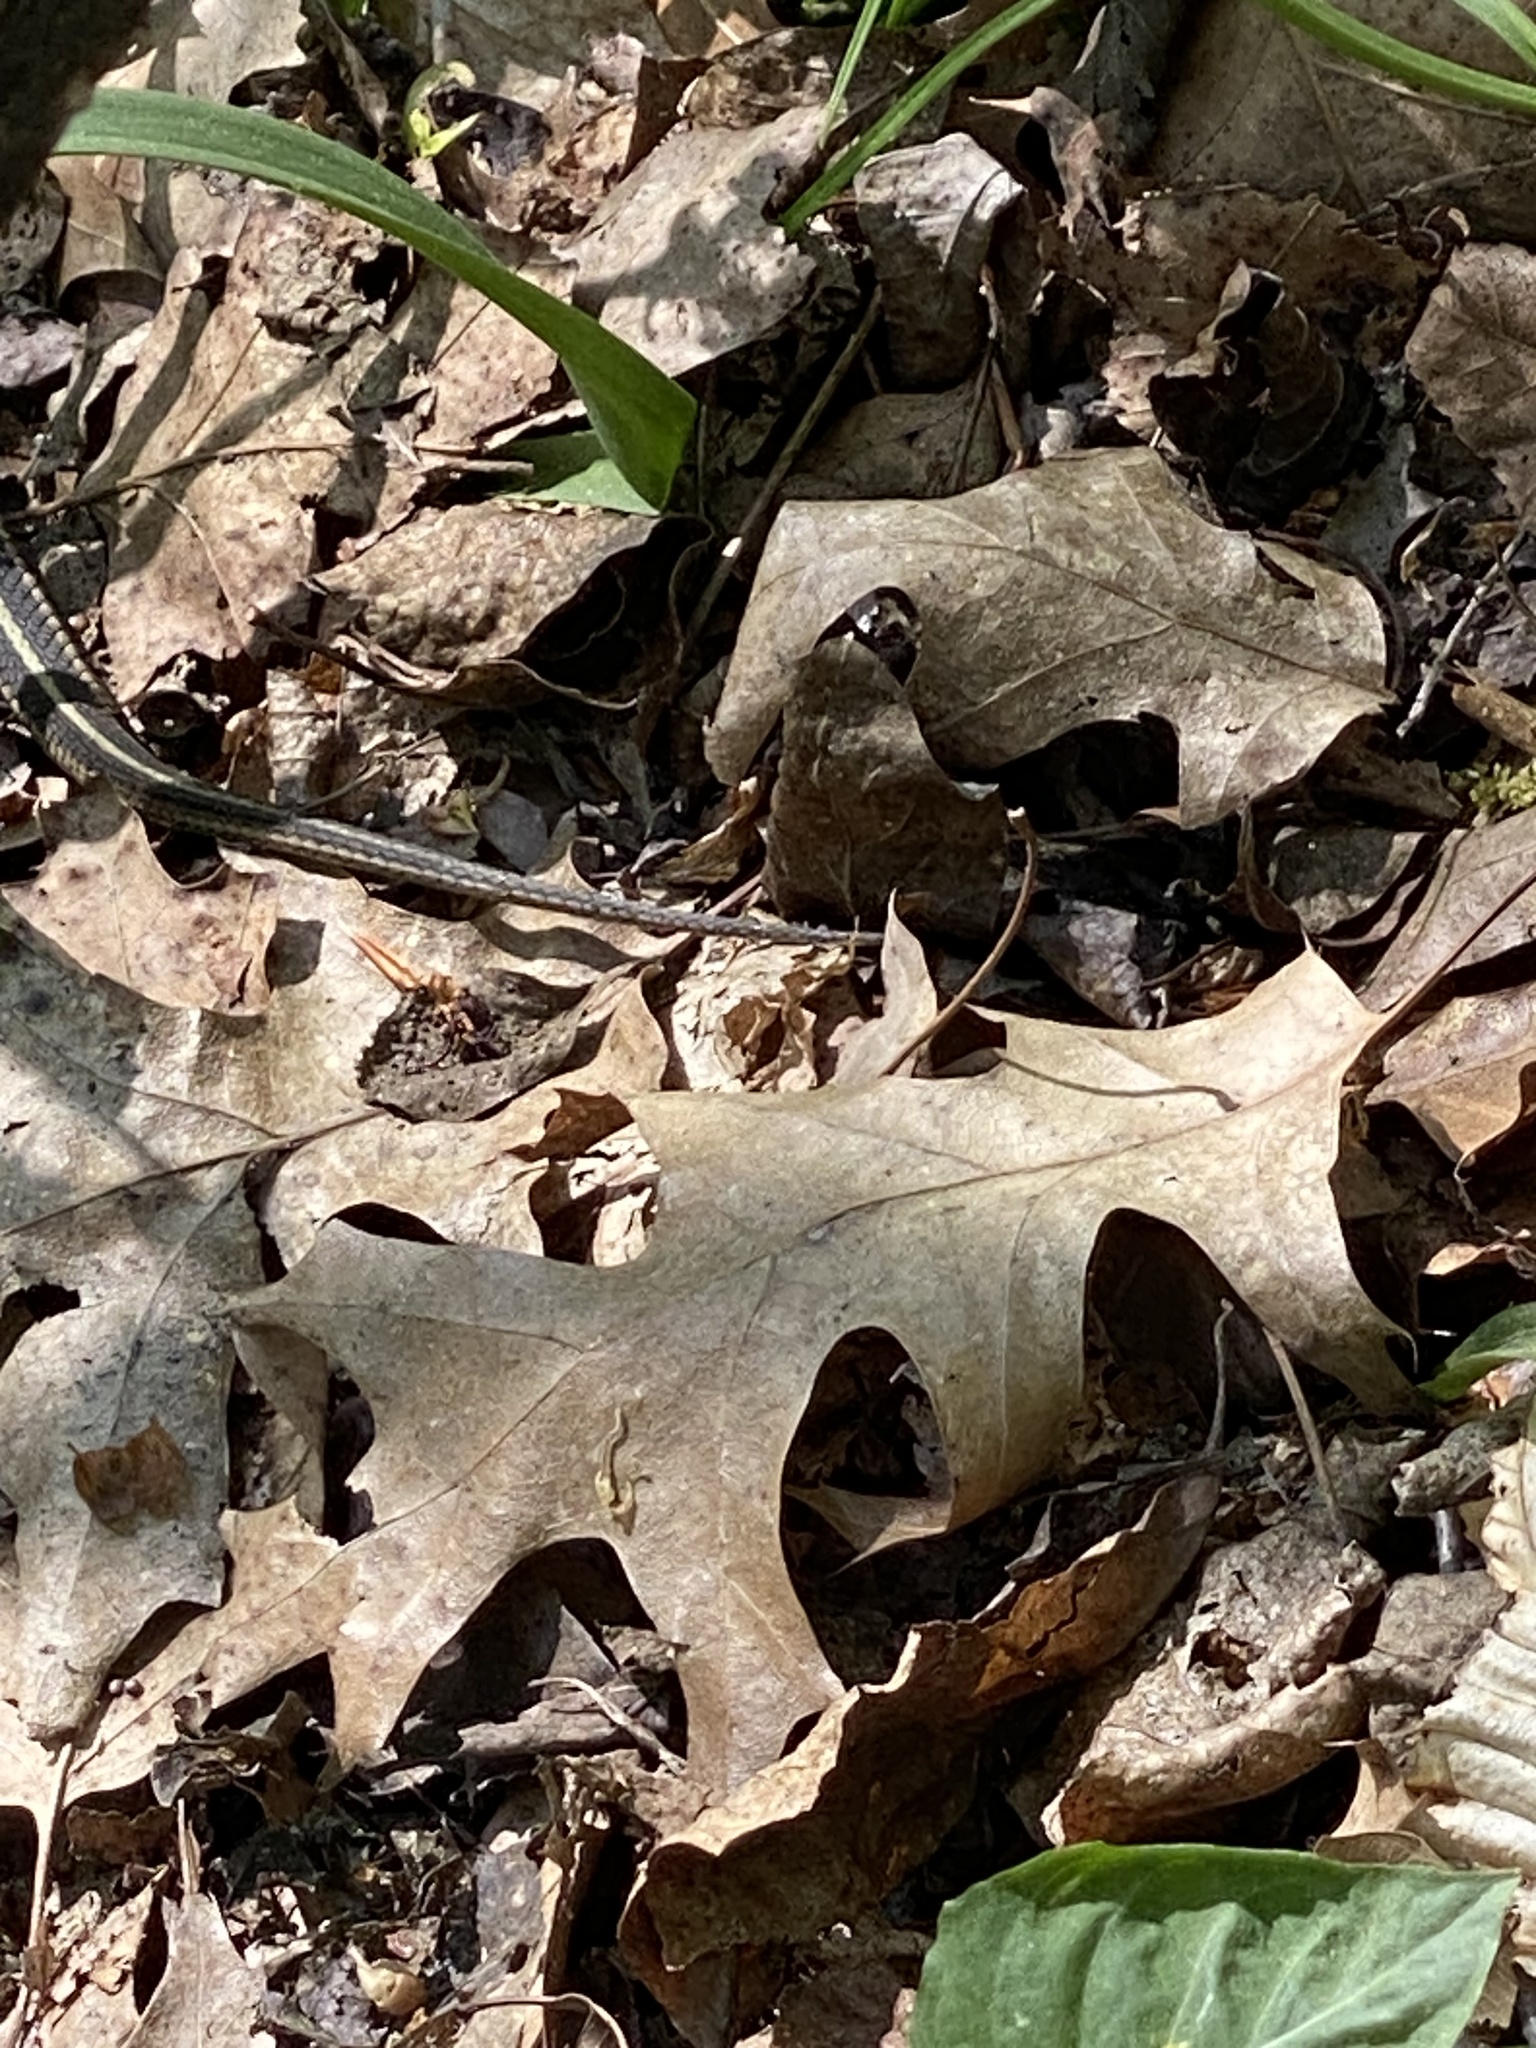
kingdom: Animalia
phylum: Chordata
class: Squamata
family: Colubridae
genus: Thamnophis
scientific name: Thamnophis sirtalis
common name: Common garter snake
